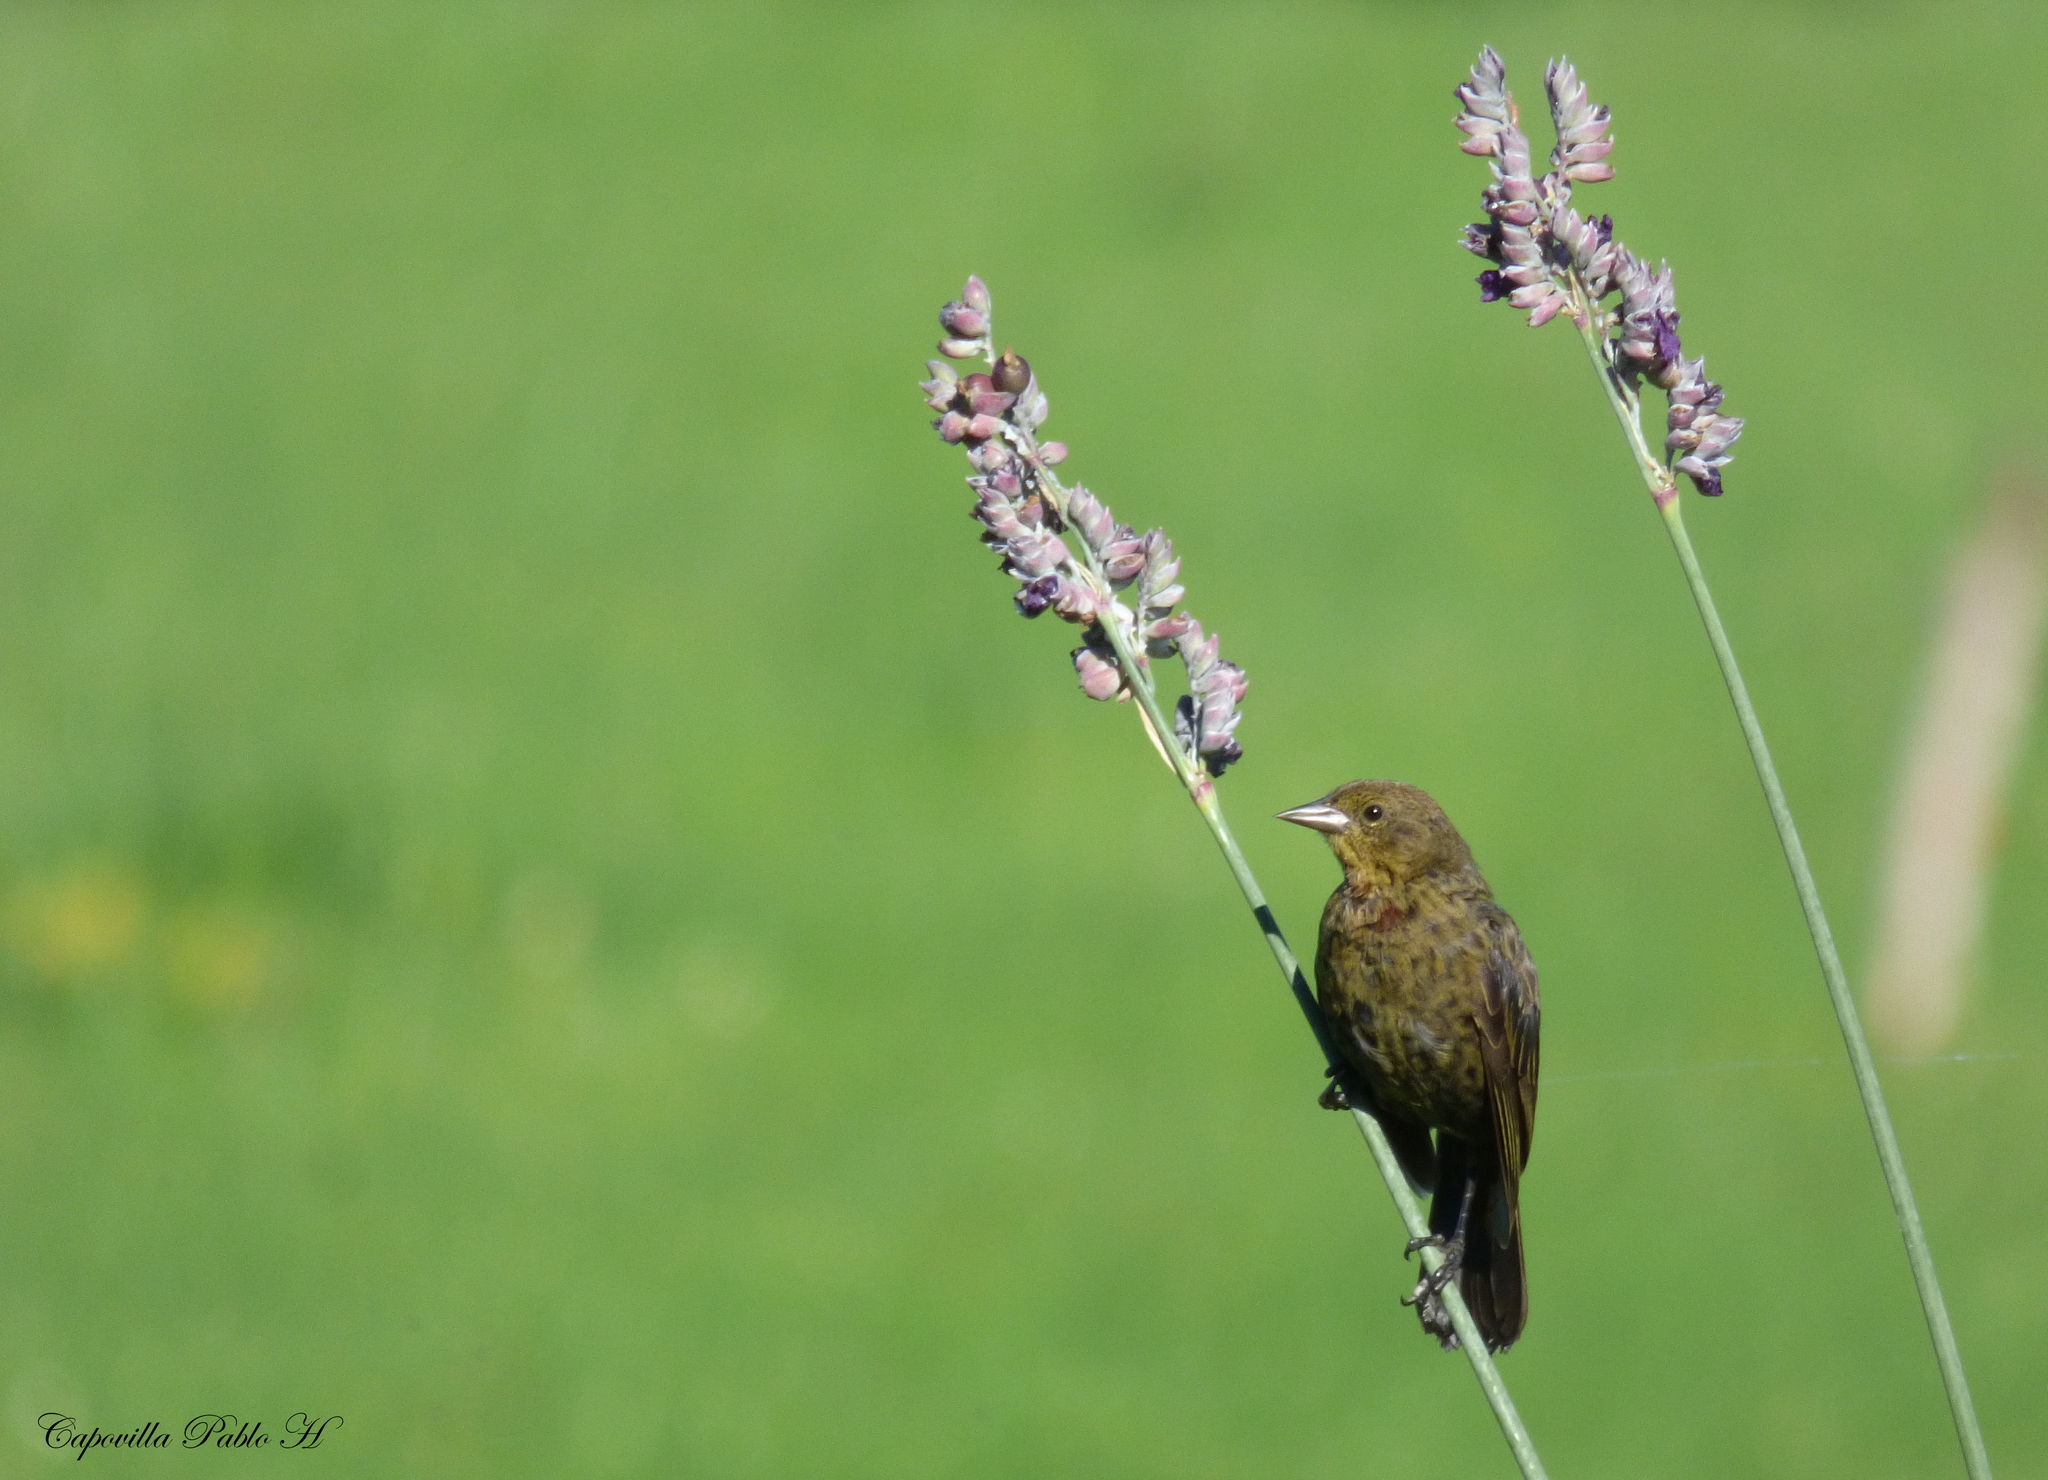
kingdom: Animalia
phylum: Chordata
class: Aves
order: Passeriformes
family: Icteridae
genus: Chrysomus
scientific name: Chrysomus ruficapillus
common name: Chestnut-capped blackbird
